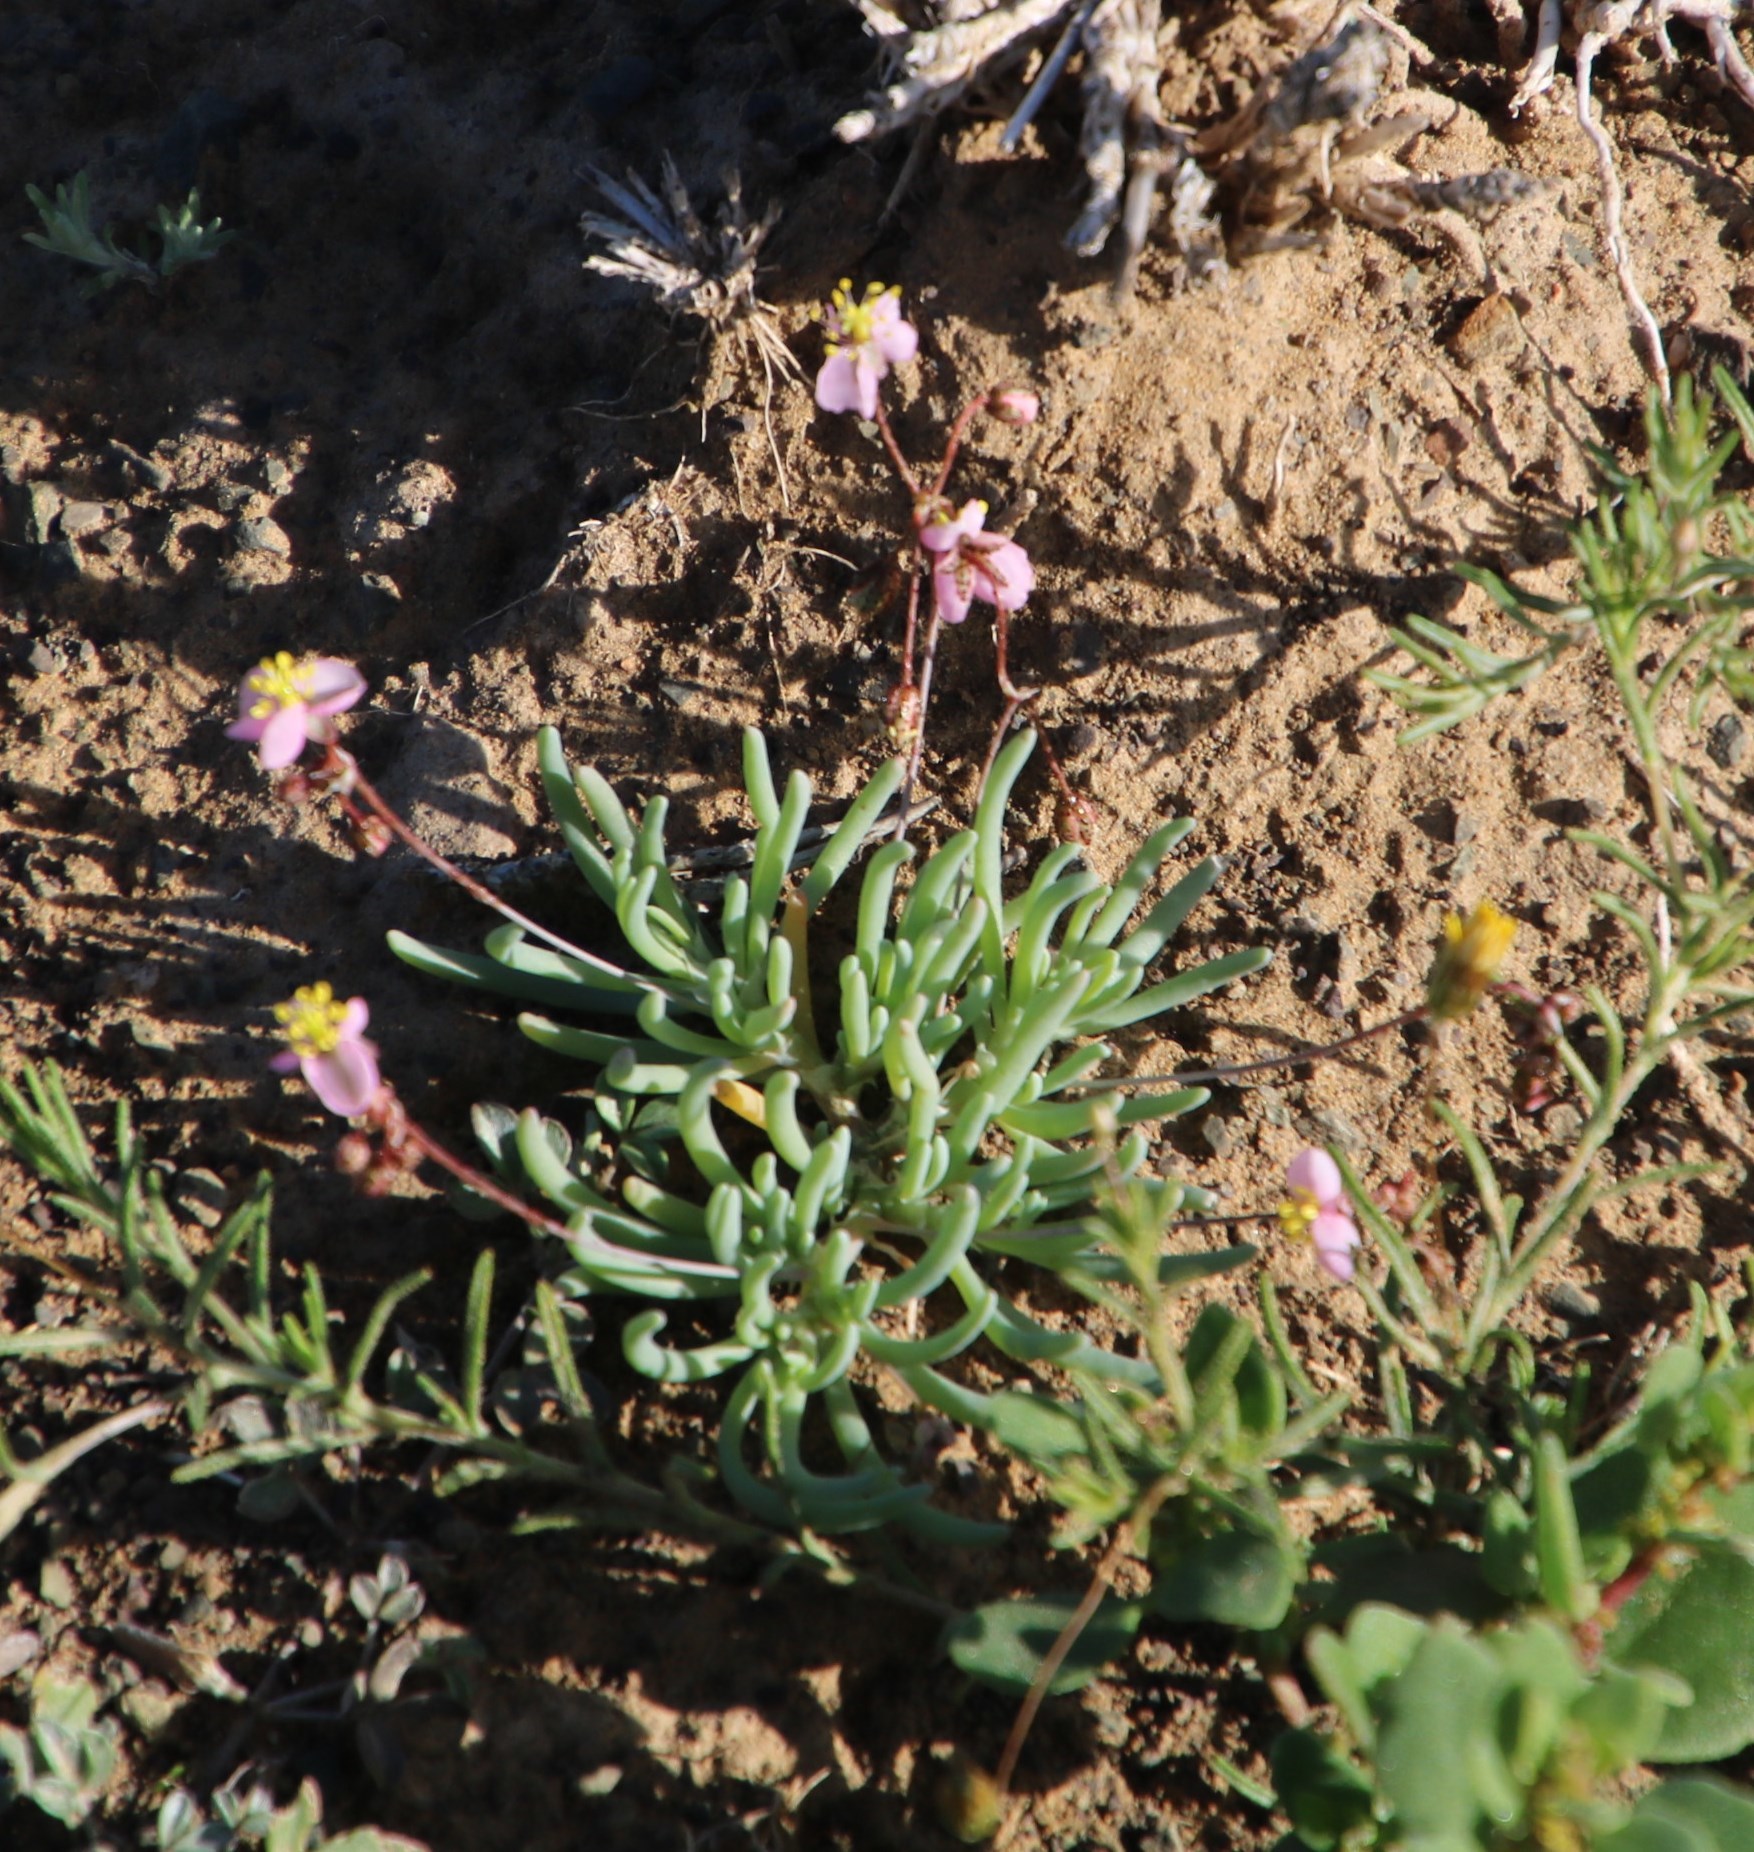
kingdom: Plantae
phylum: Tracheophyta
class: Magnoliopsida
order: Caryophyllales
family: Kewaceae
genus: Kewa
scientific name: Kewa salsoloides
